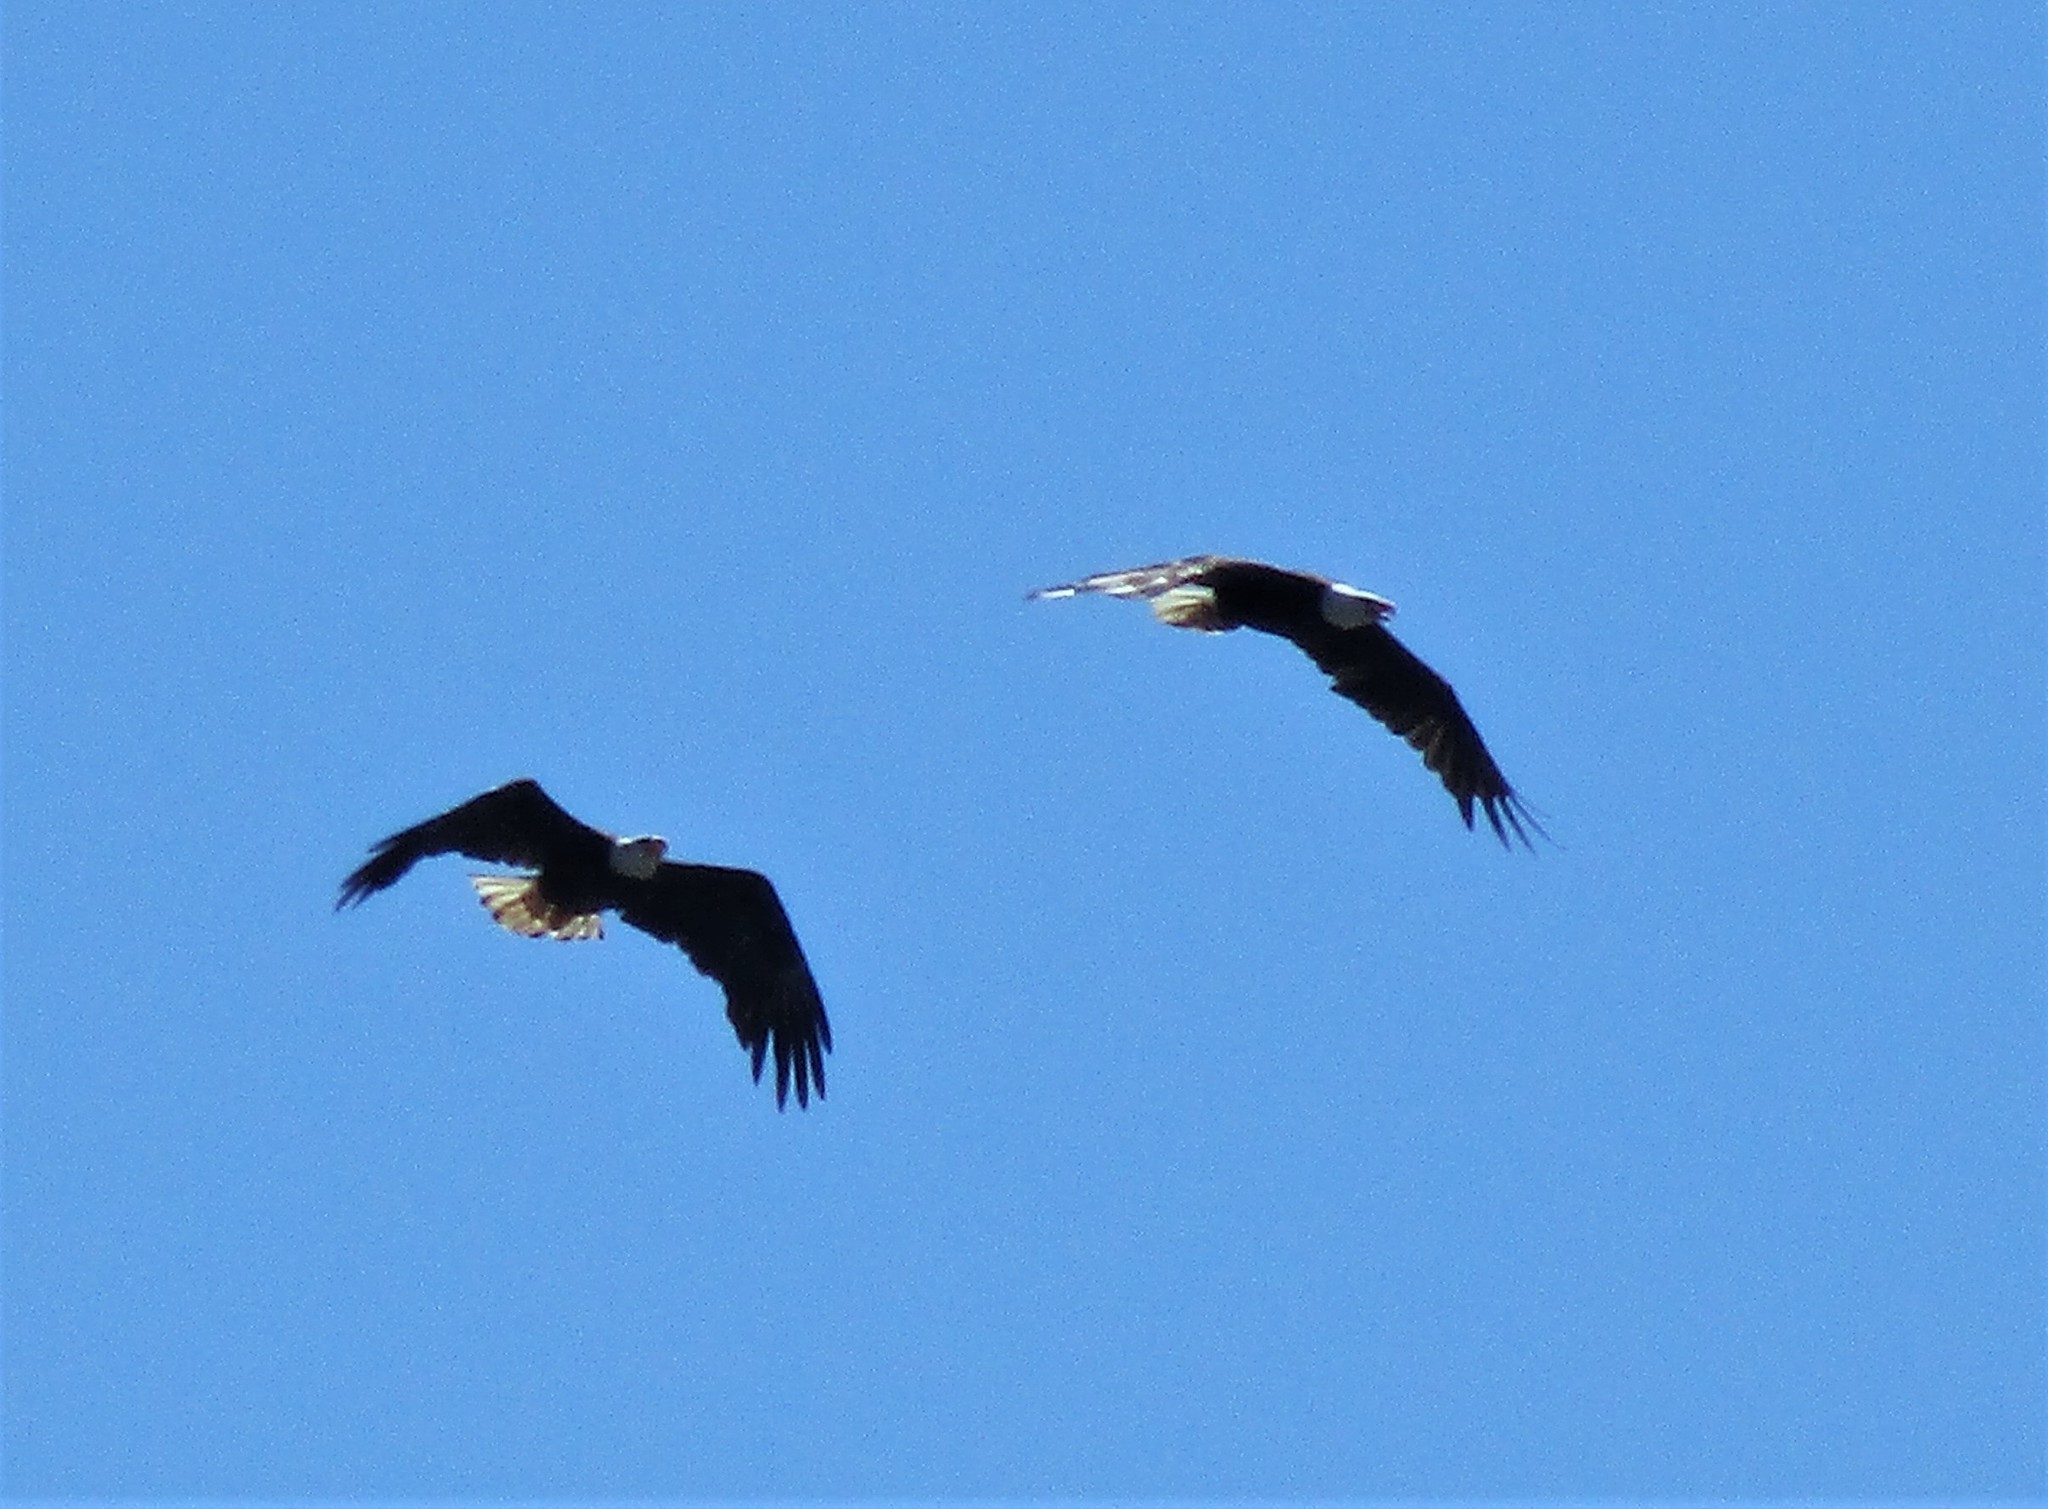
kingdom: Animalia
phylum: Chordata
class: Aves
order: Accipitriformes
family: Accipitridae
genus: Haliaeetus
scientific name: Haliaeetus leucocephalus
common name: Bald eagle
